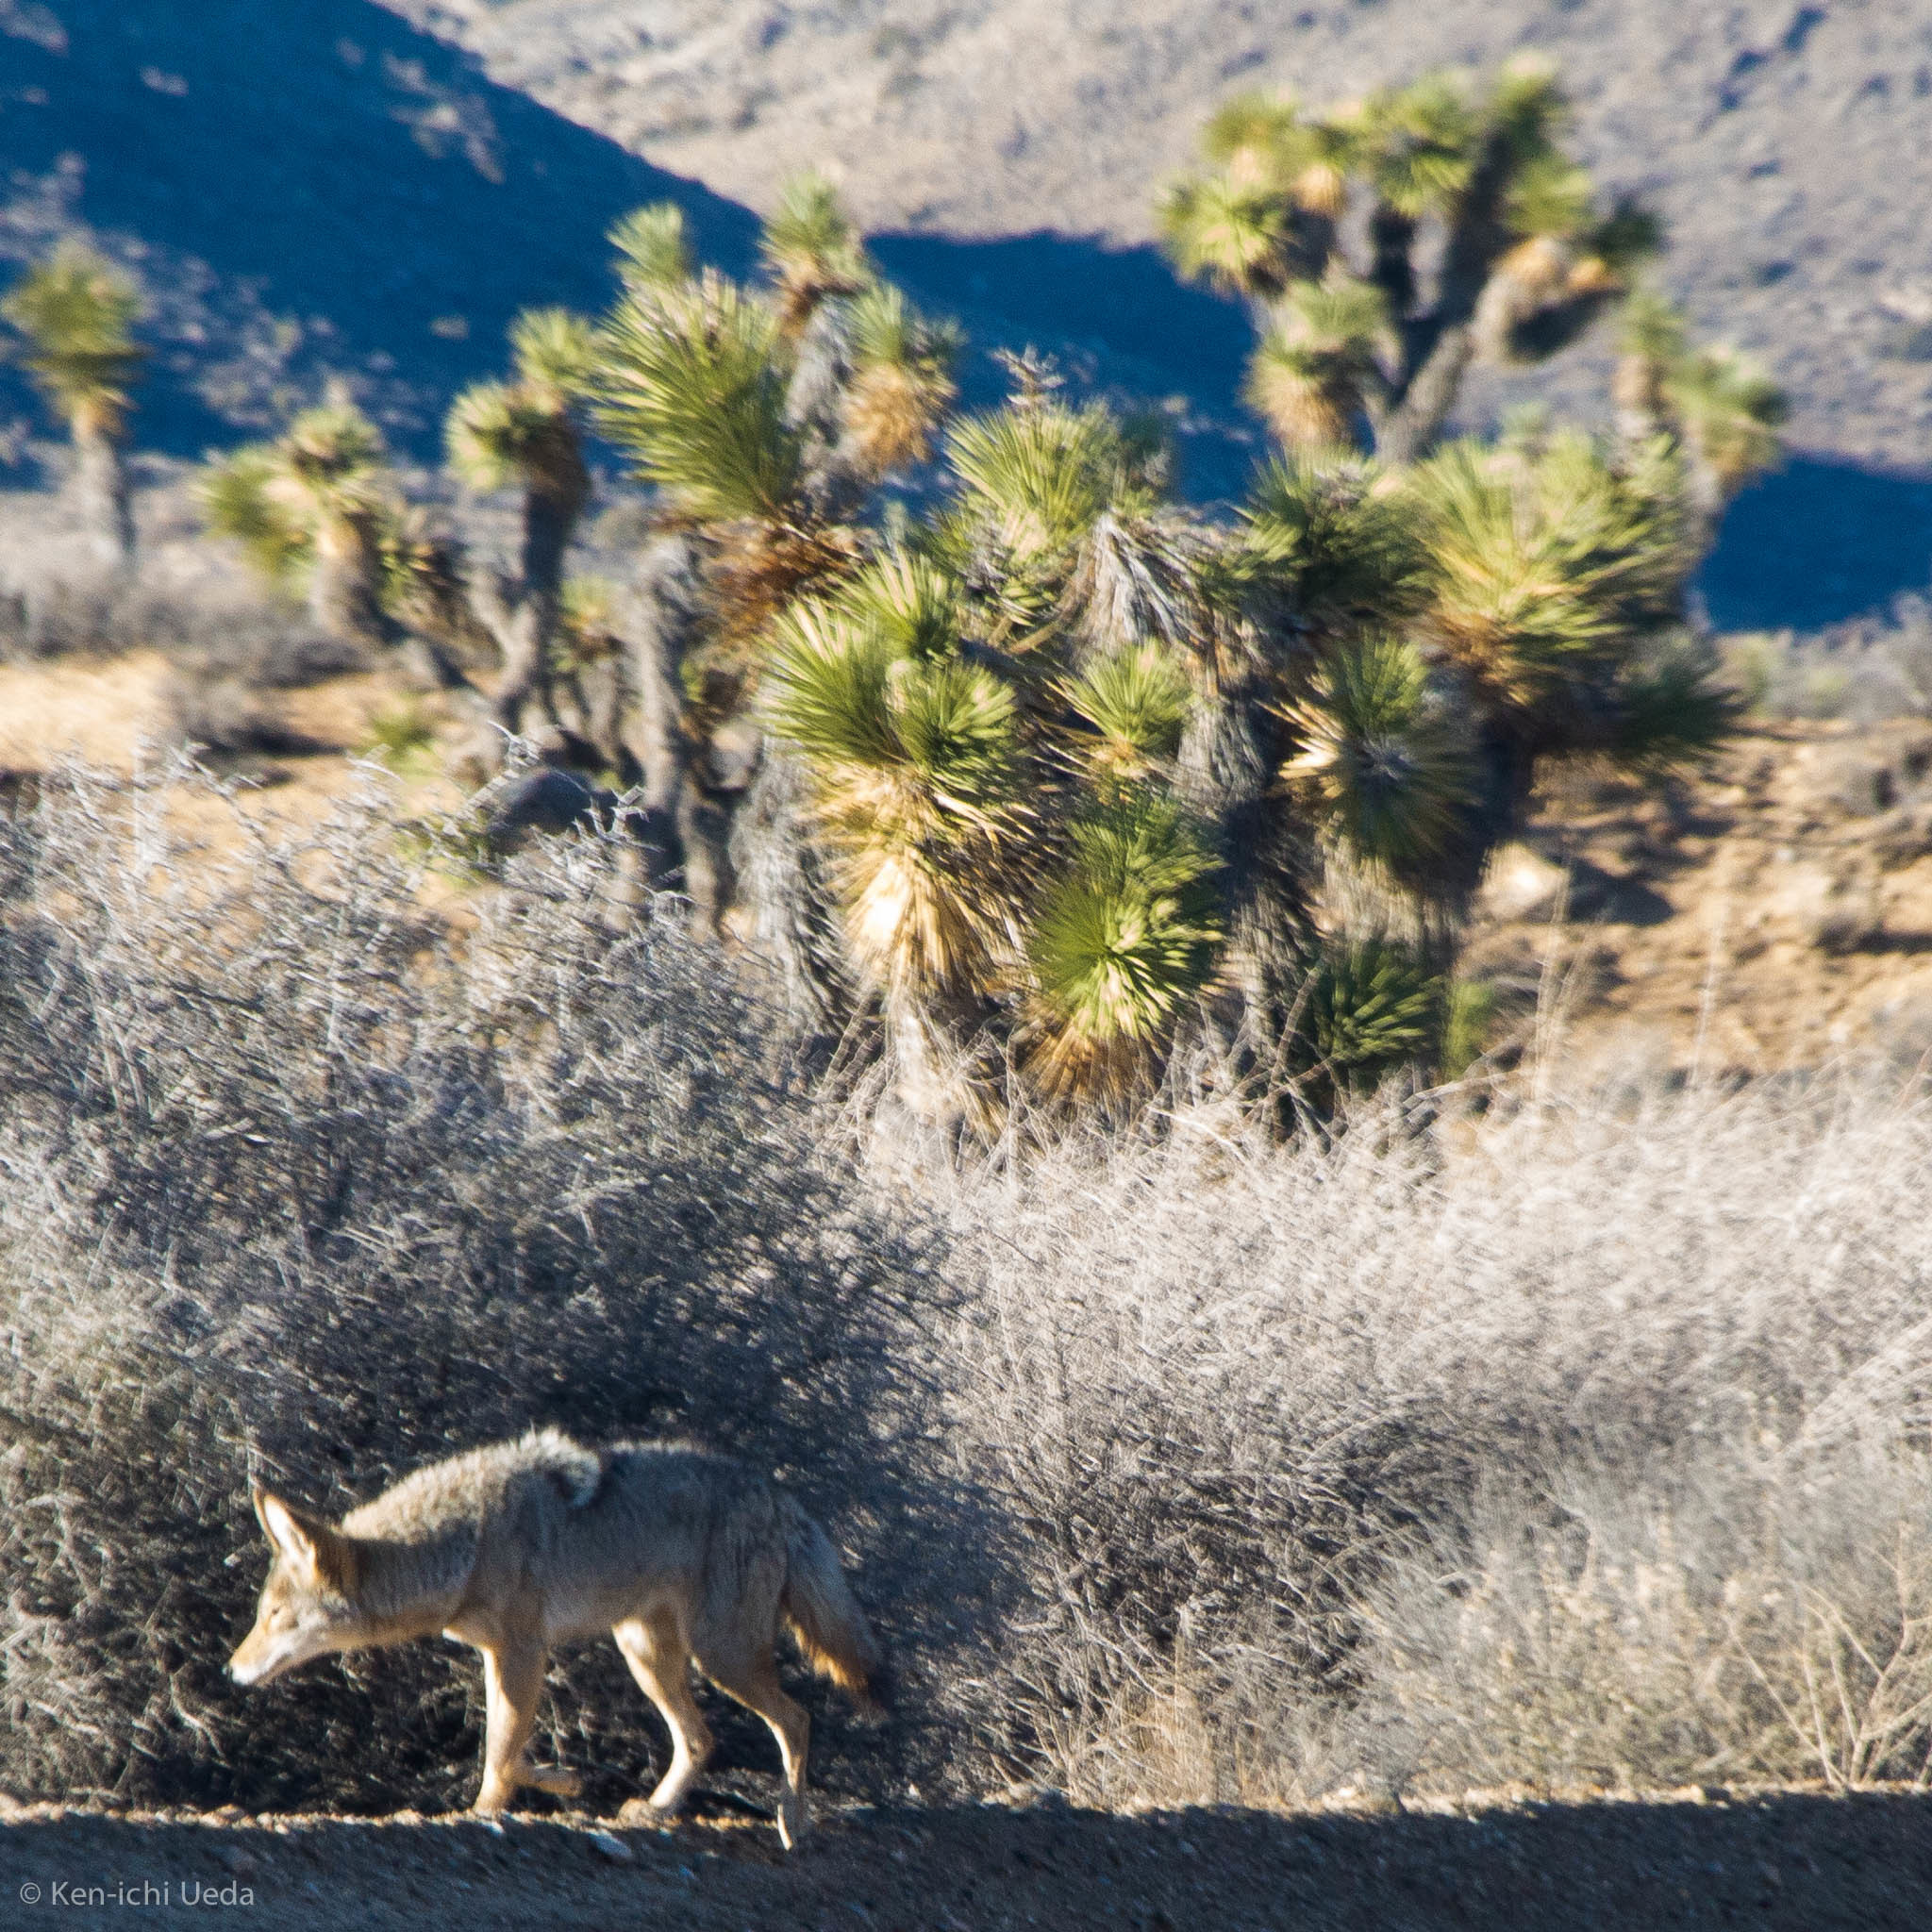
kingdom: Animalia
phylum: Chordata
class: Mammalia
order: Carnivora
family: Canidae
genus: Canis
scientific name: Canis latrans
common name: Coyote
